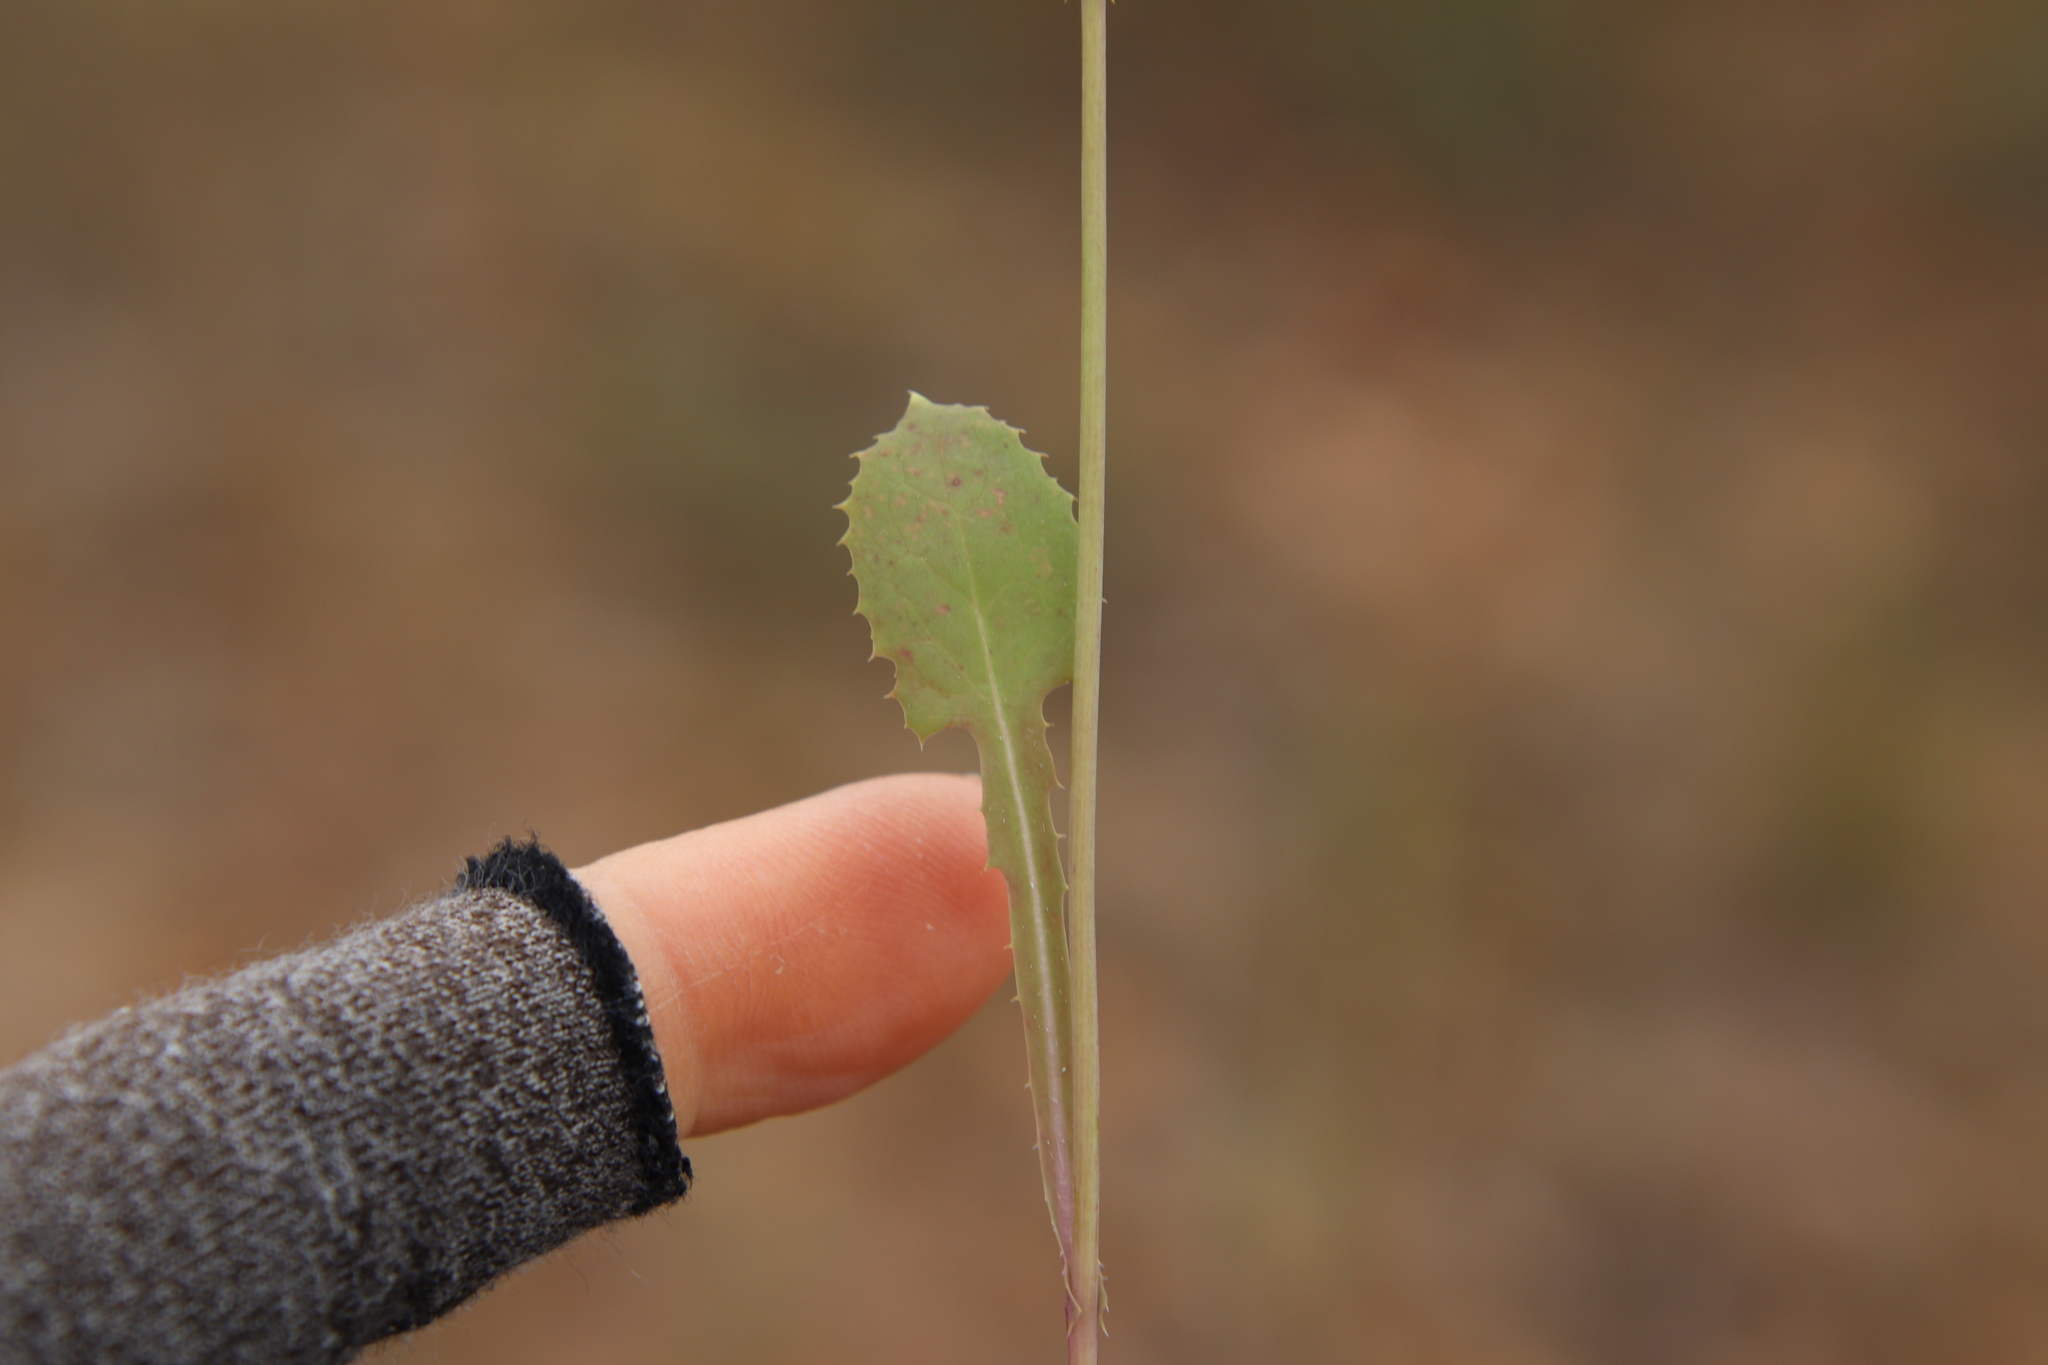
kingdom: Plantae
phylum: Tracheophyta
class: Magnoliopsida
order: Asterales
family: Asteraceae
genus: Sonchus
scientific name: Sonchus oleraceus
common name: Common sowthistle
